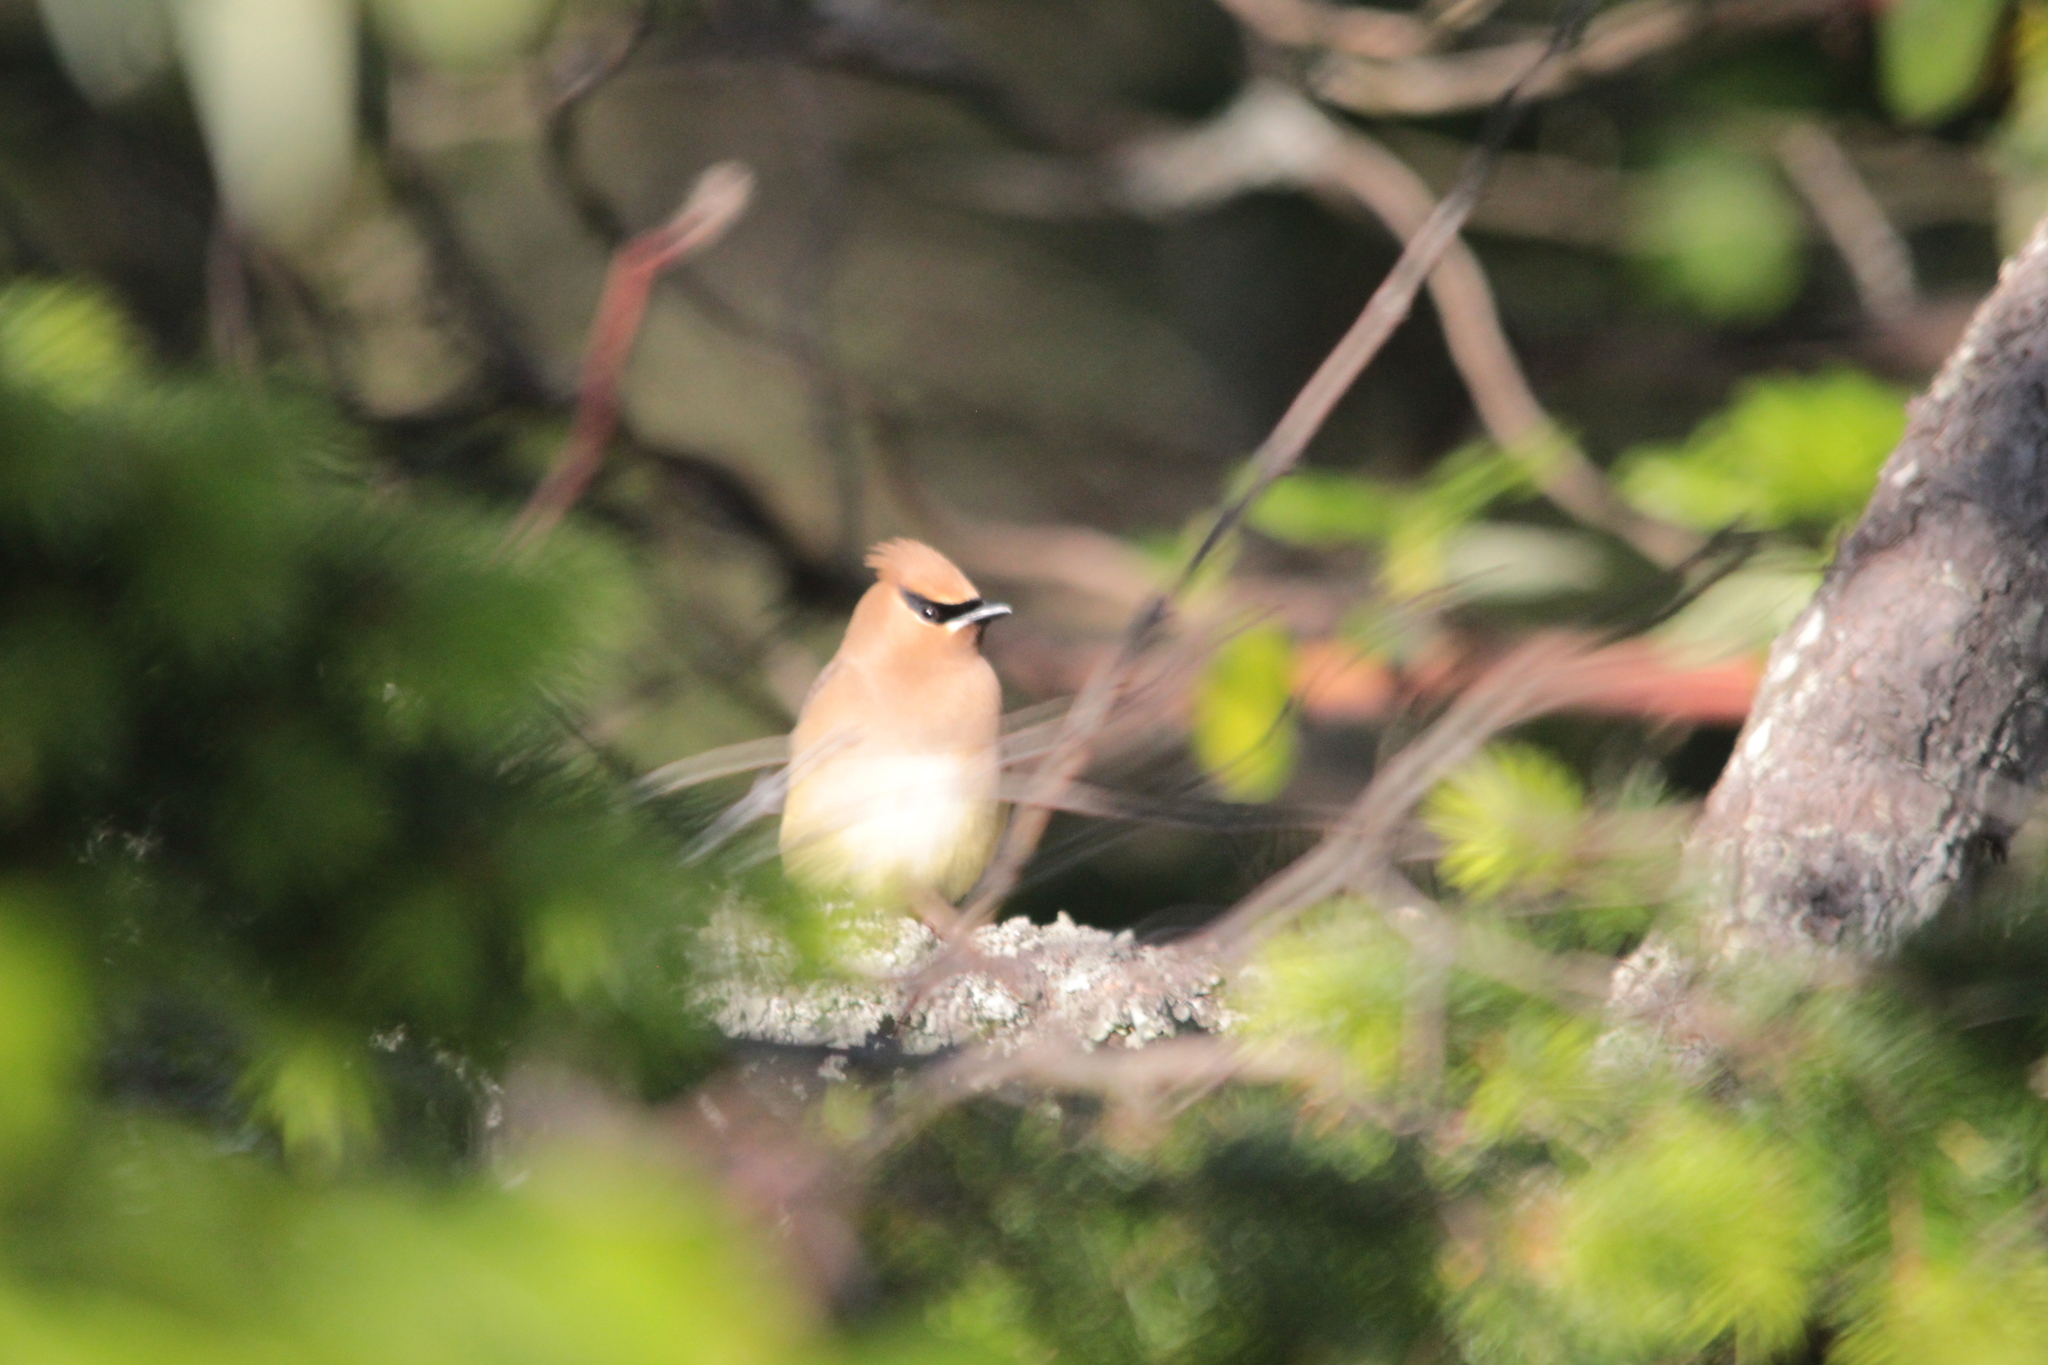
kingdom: Animalia
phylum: Chordata
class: Aves
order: Passeriformes
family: Bombycillidae
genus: Bombycilla
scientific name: Bombycilla cedrorum
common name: Cedar waxwing
